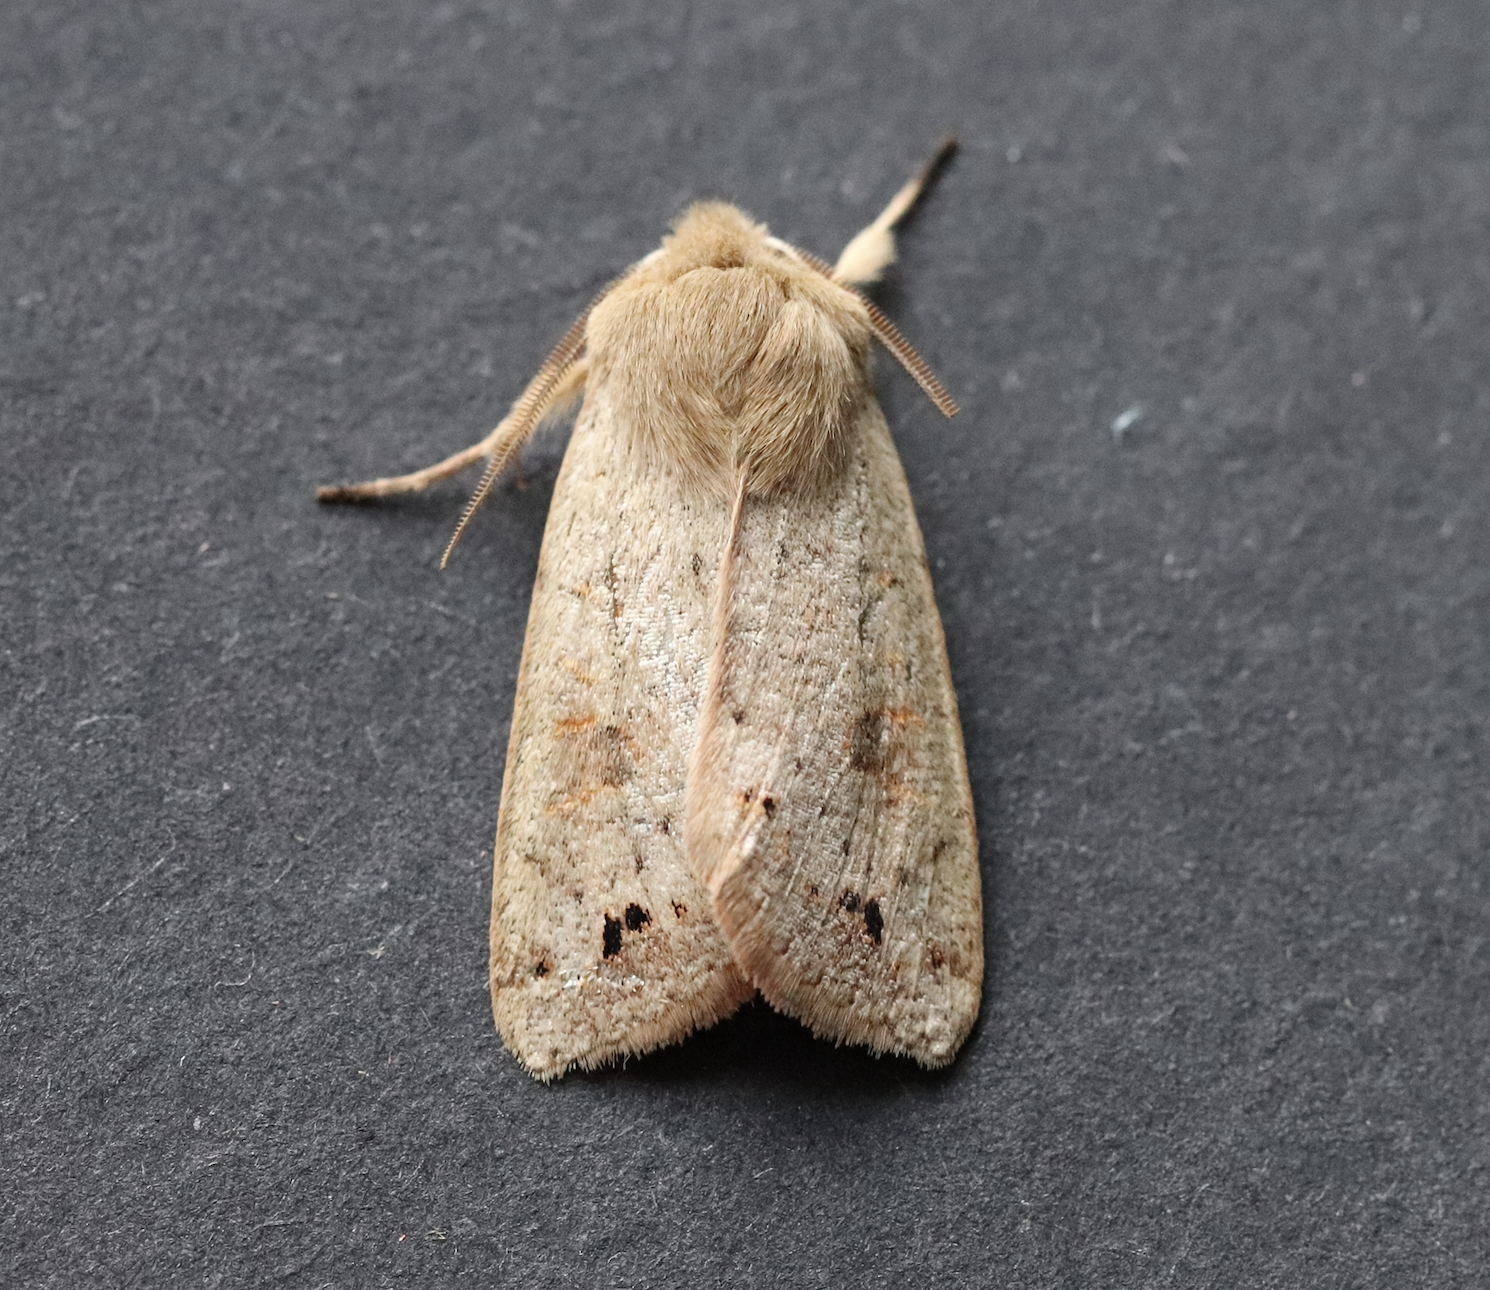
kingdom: Animalia
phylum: Arthropoda
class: Insecta
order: Lepidoptera
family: Noctuidae
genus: Anorthoa
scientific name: Anorthoa munda
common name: Twin-spotted quaker
